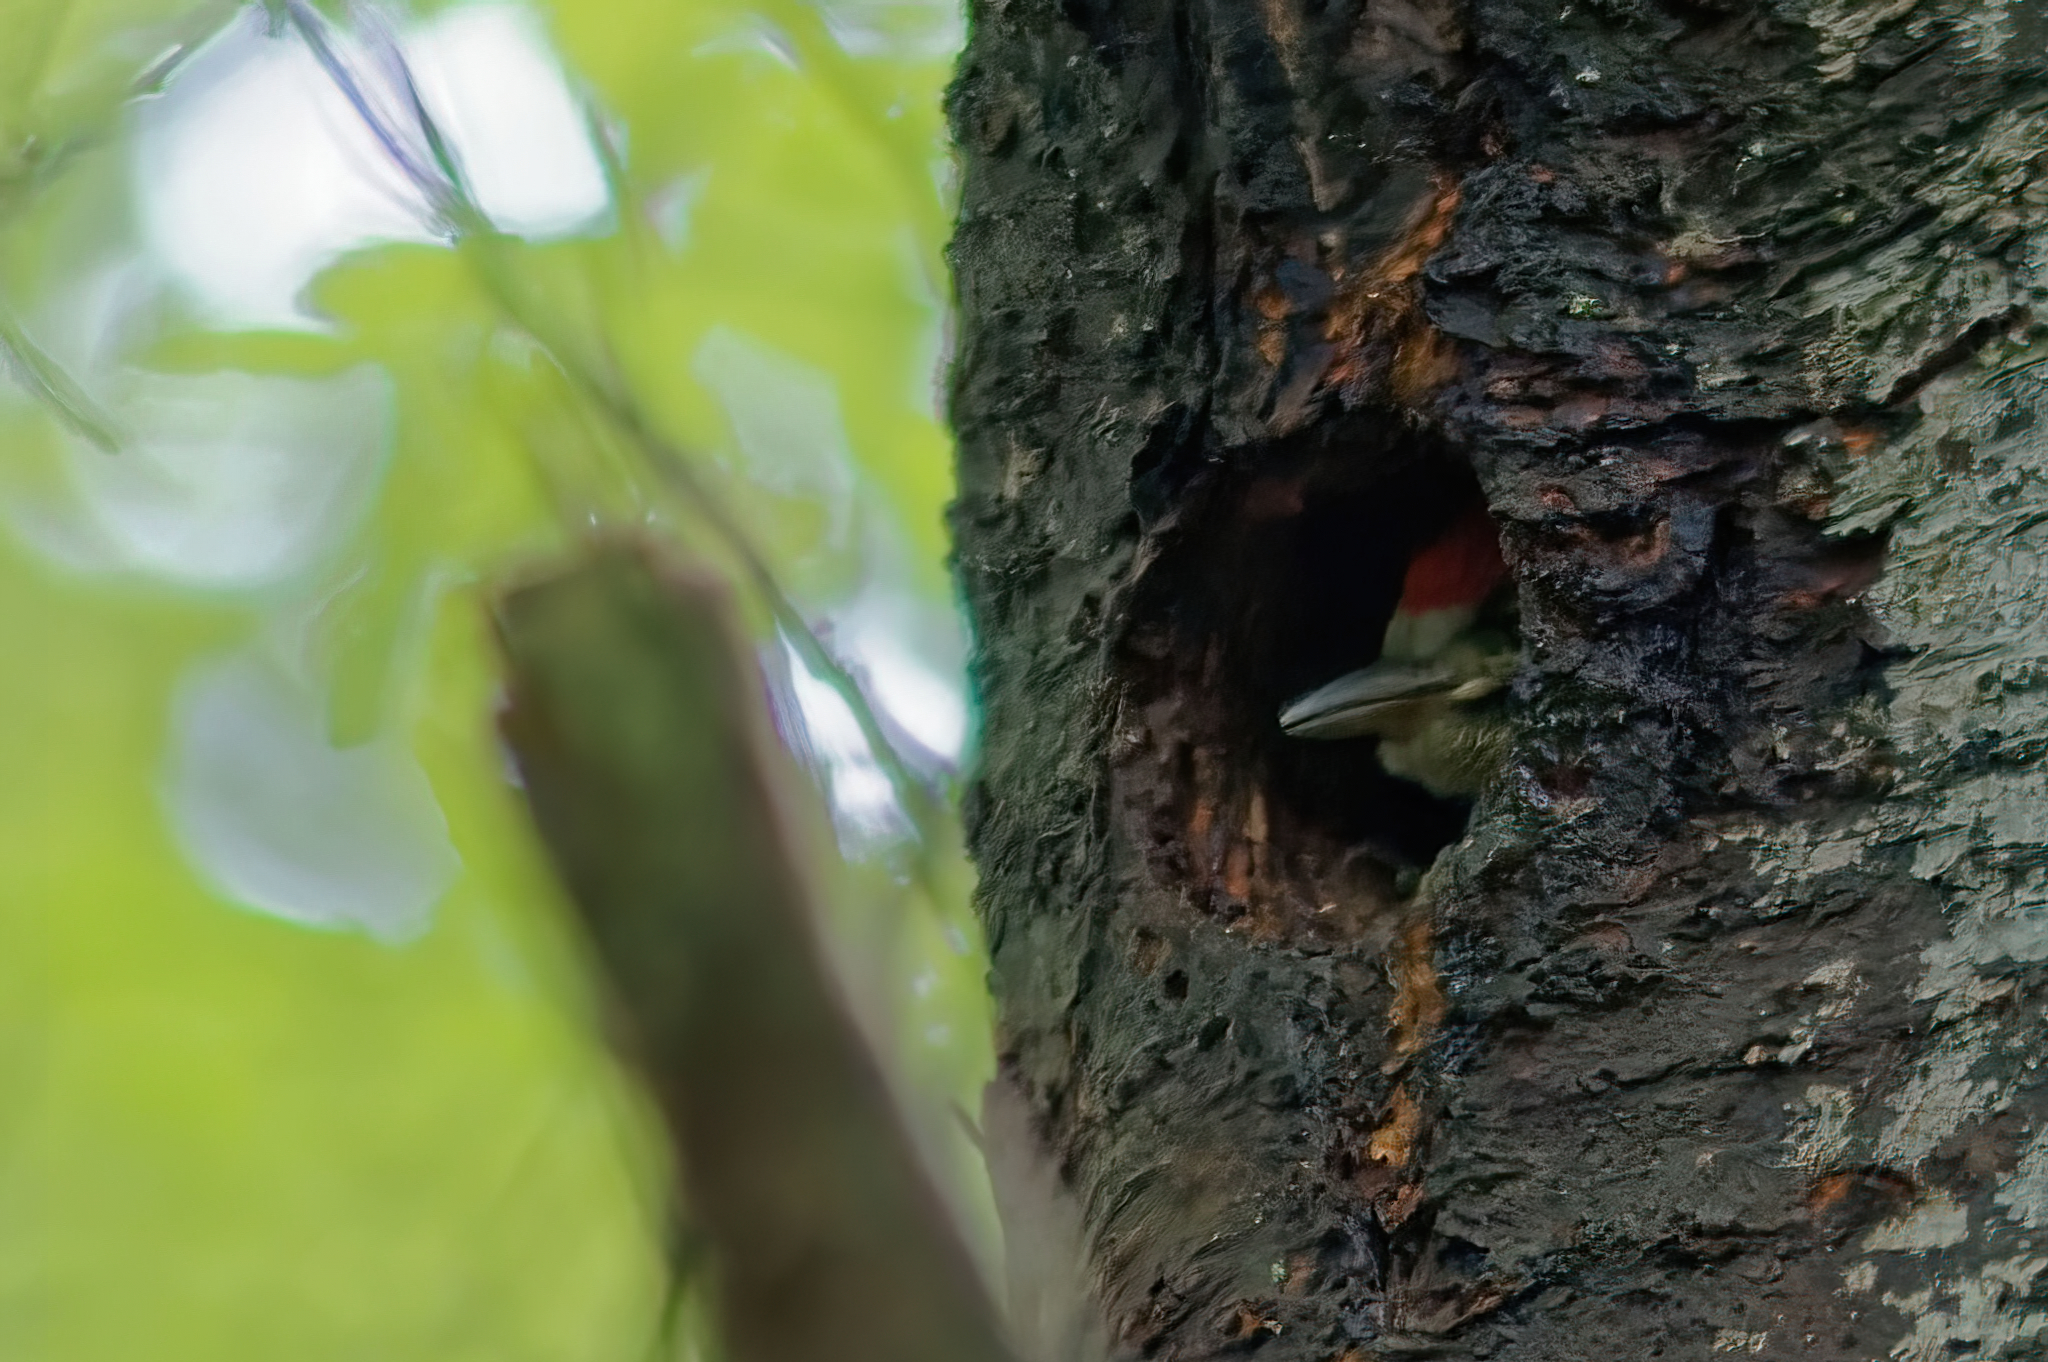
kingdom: Animalia
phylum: Chordata
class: Aves
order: Piciformes
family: Picidae
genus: Dendrocopos
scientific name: Dendrocopos major
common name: Great spotted woodpecker
